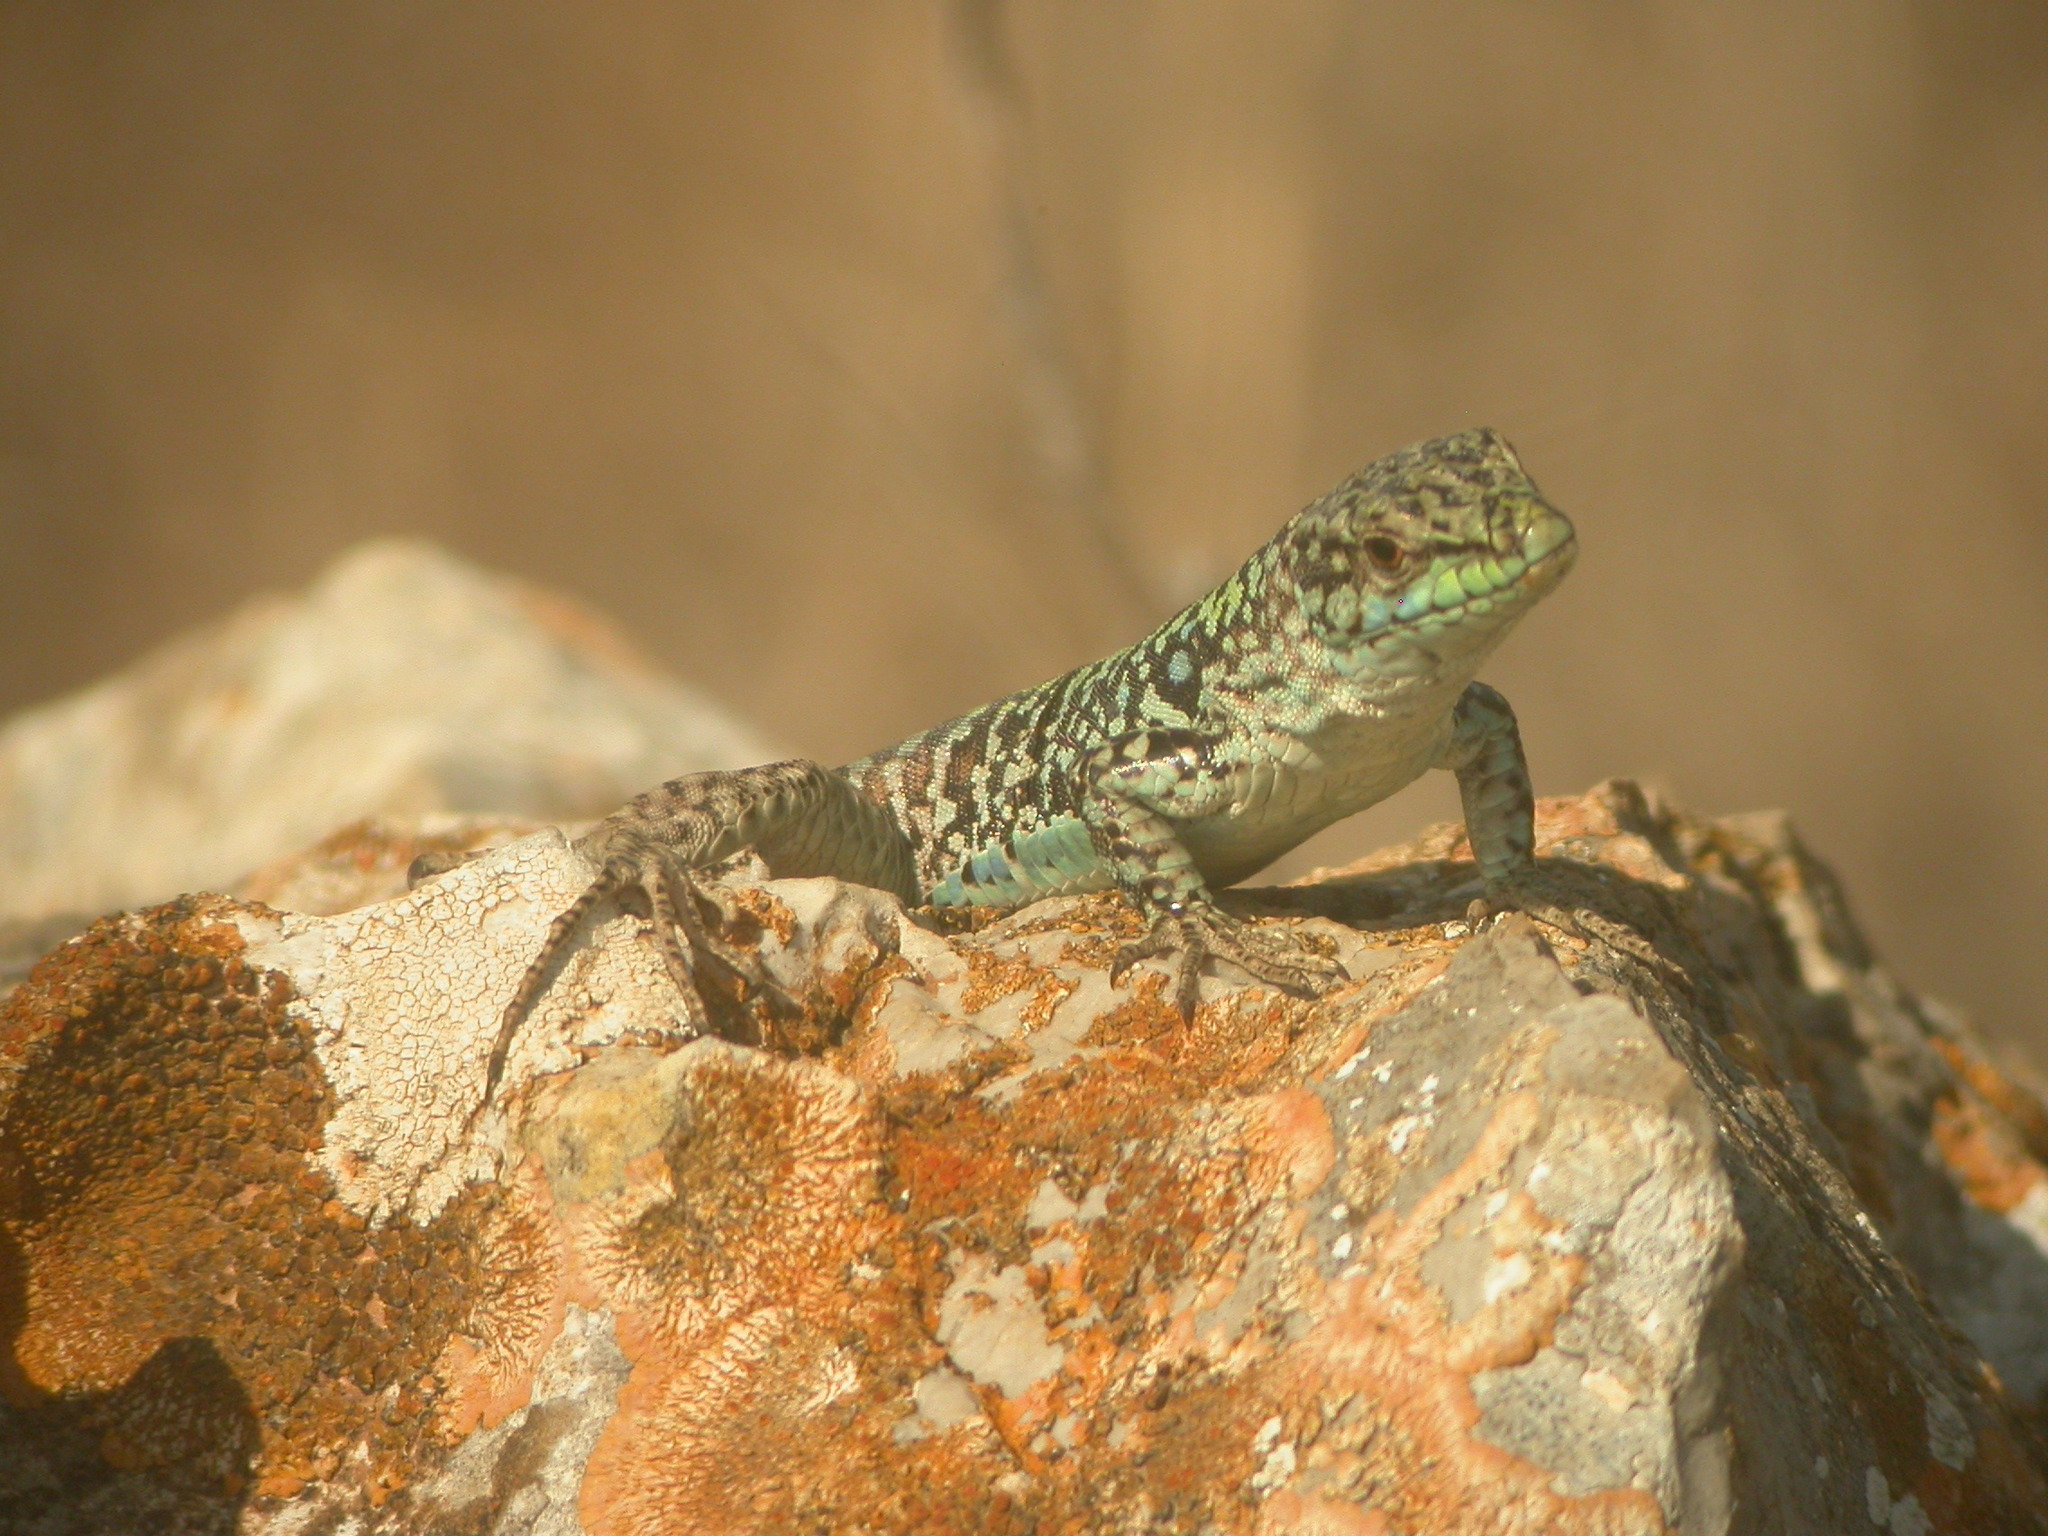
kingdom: Animalia
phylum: Chordata
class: Squamata
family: Lacertidae
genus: Podarcis
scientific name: Podarcis siculus
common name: Italian wall lizard
